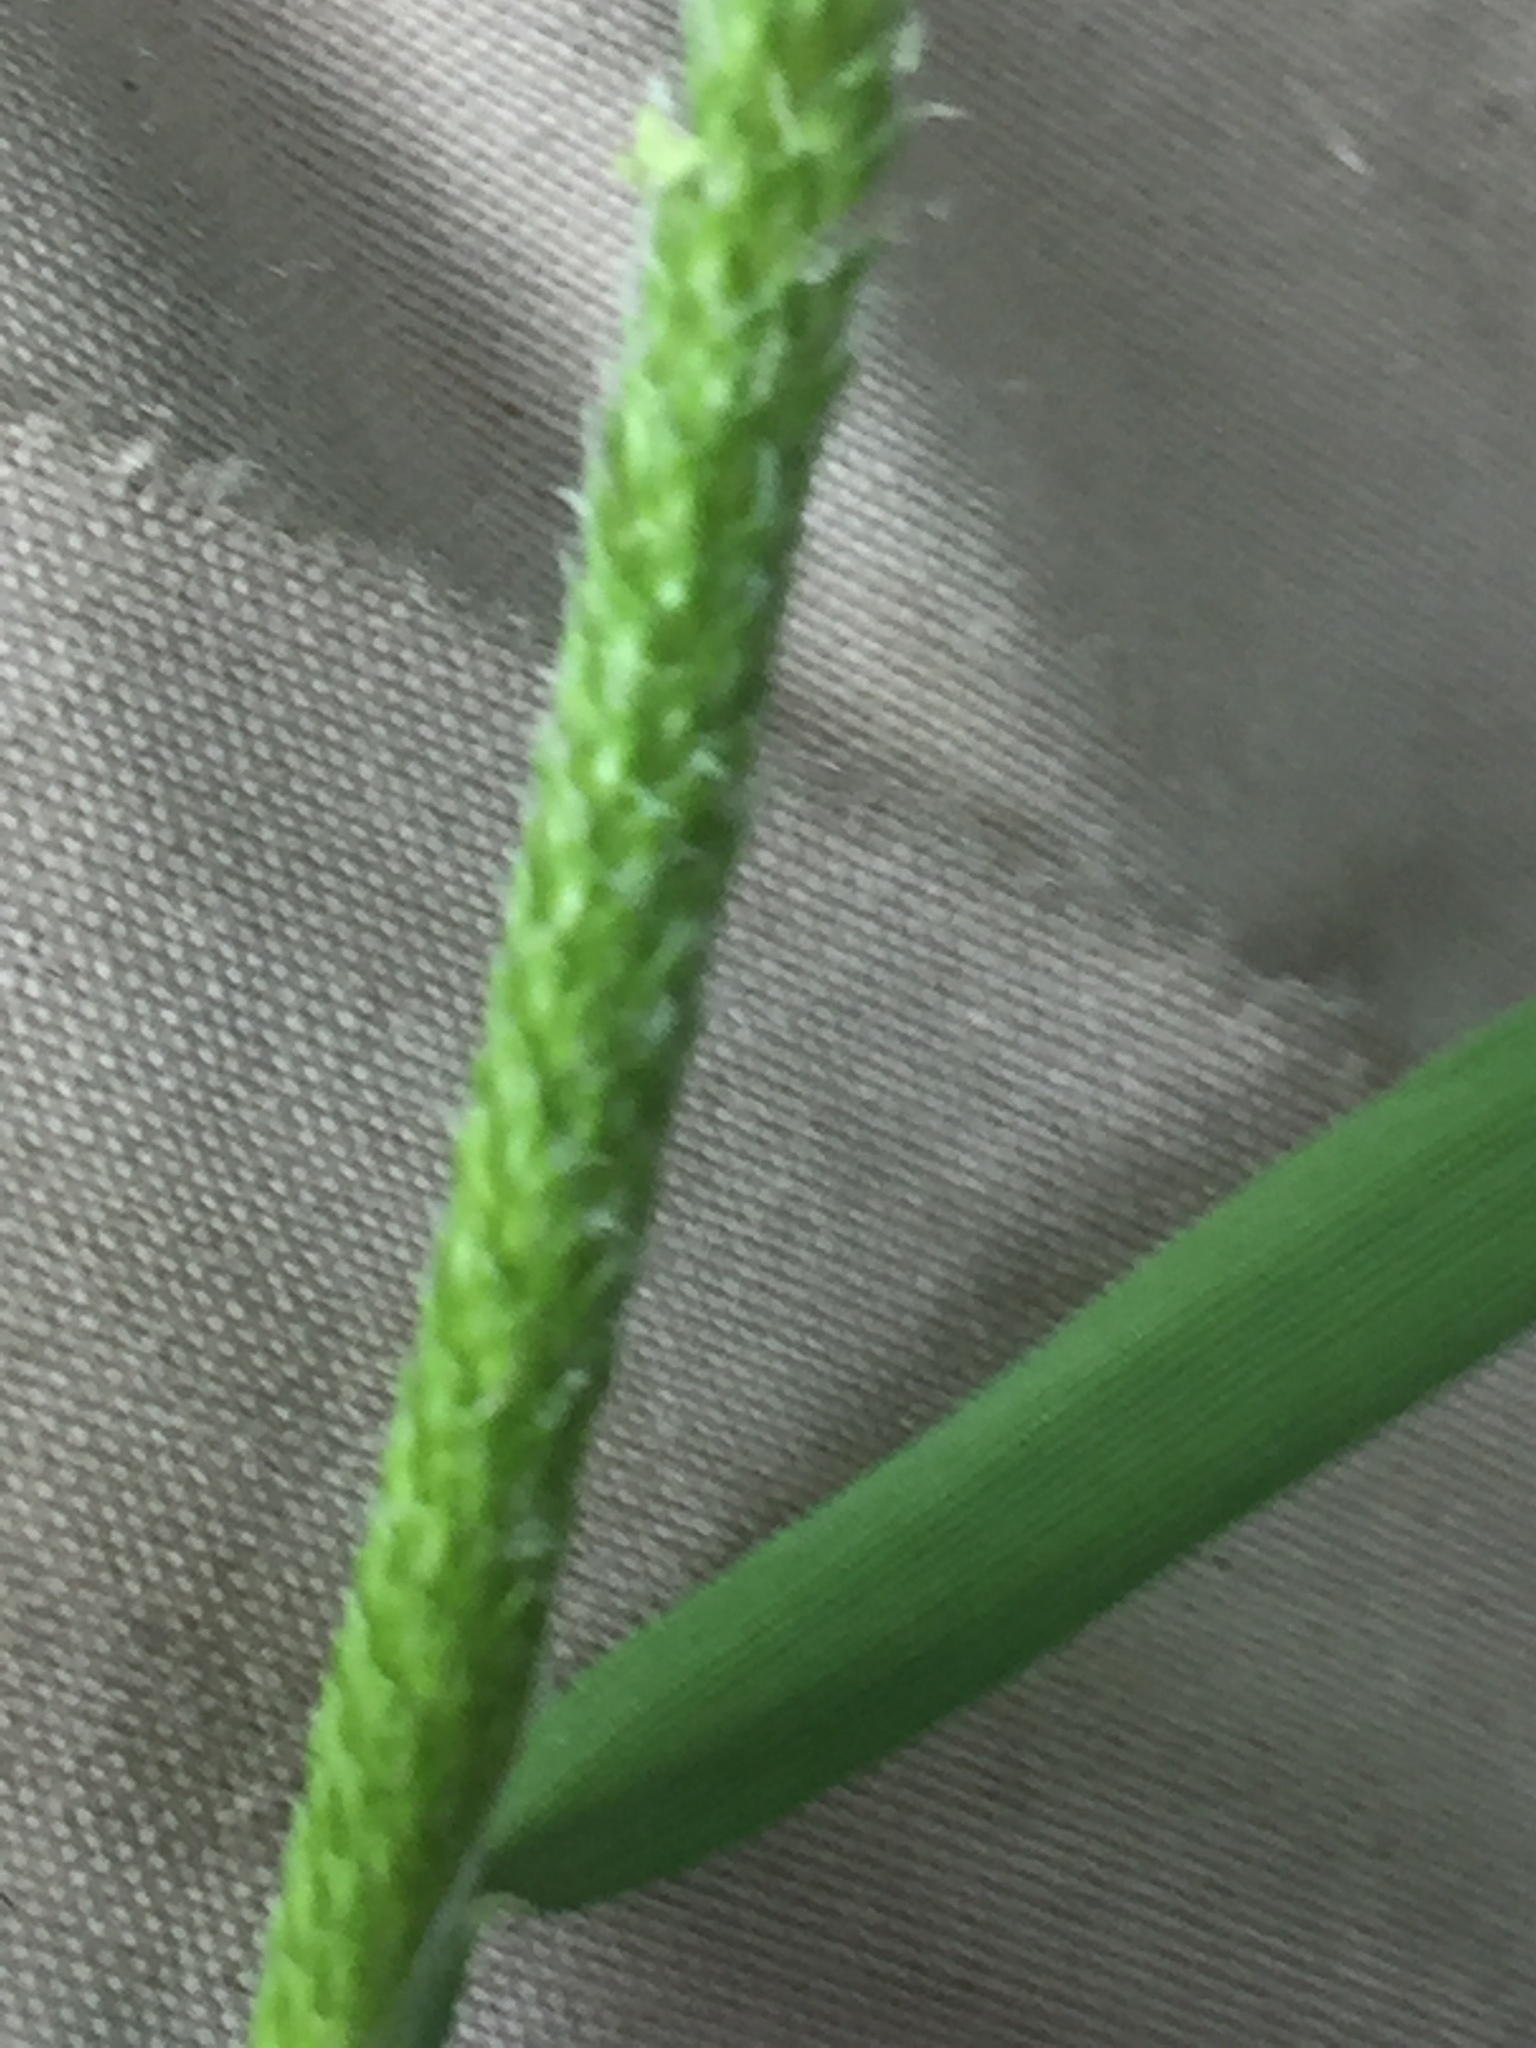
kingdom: Plantae
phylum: Tracheophyta
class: Liliopsida
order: Poales
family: Poaceae
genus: Alopecurus
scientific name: Alopecurus aequalis
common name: Orange foxtail
